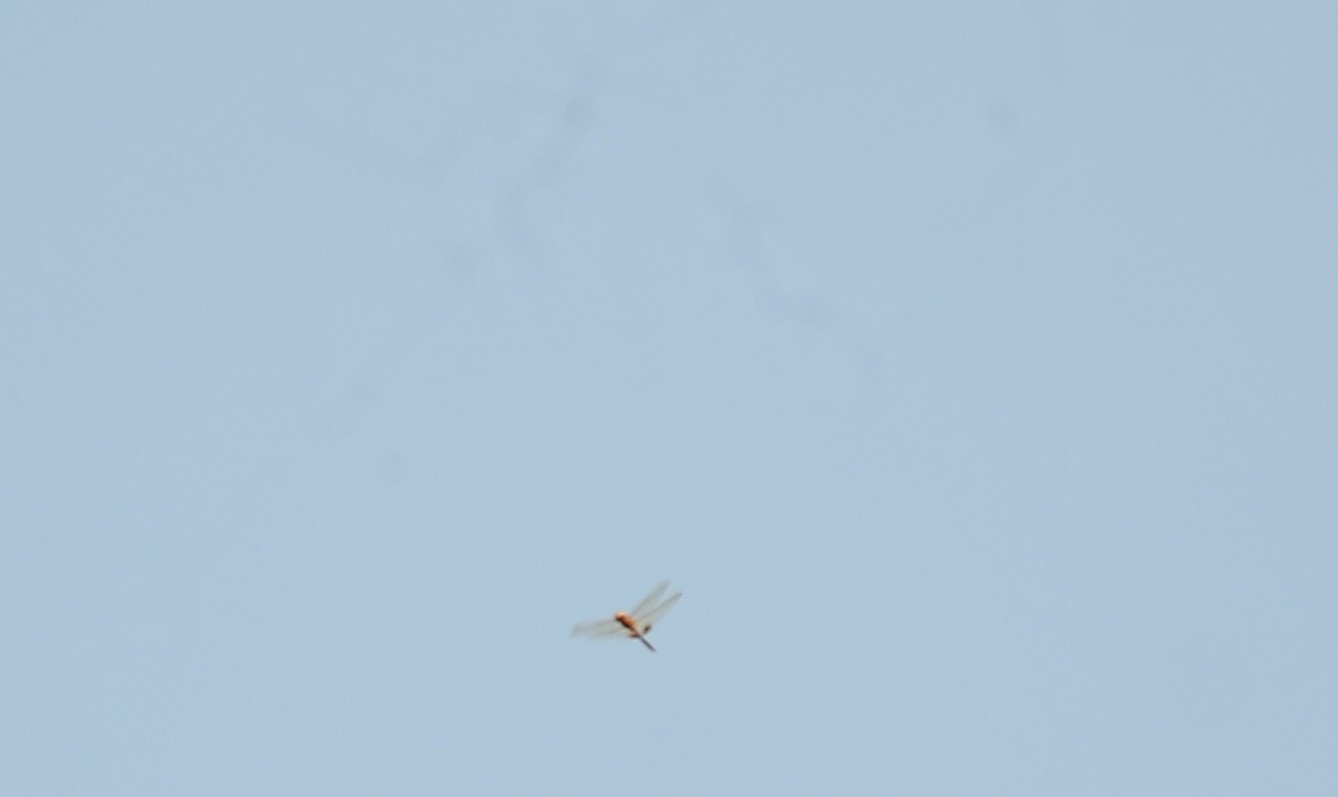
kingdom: Animalia
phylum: Arthropoda
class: Insecta
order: Odonata
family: Libellulidae
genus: Hydrobasileus
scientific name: Hydrobasileus croceus
